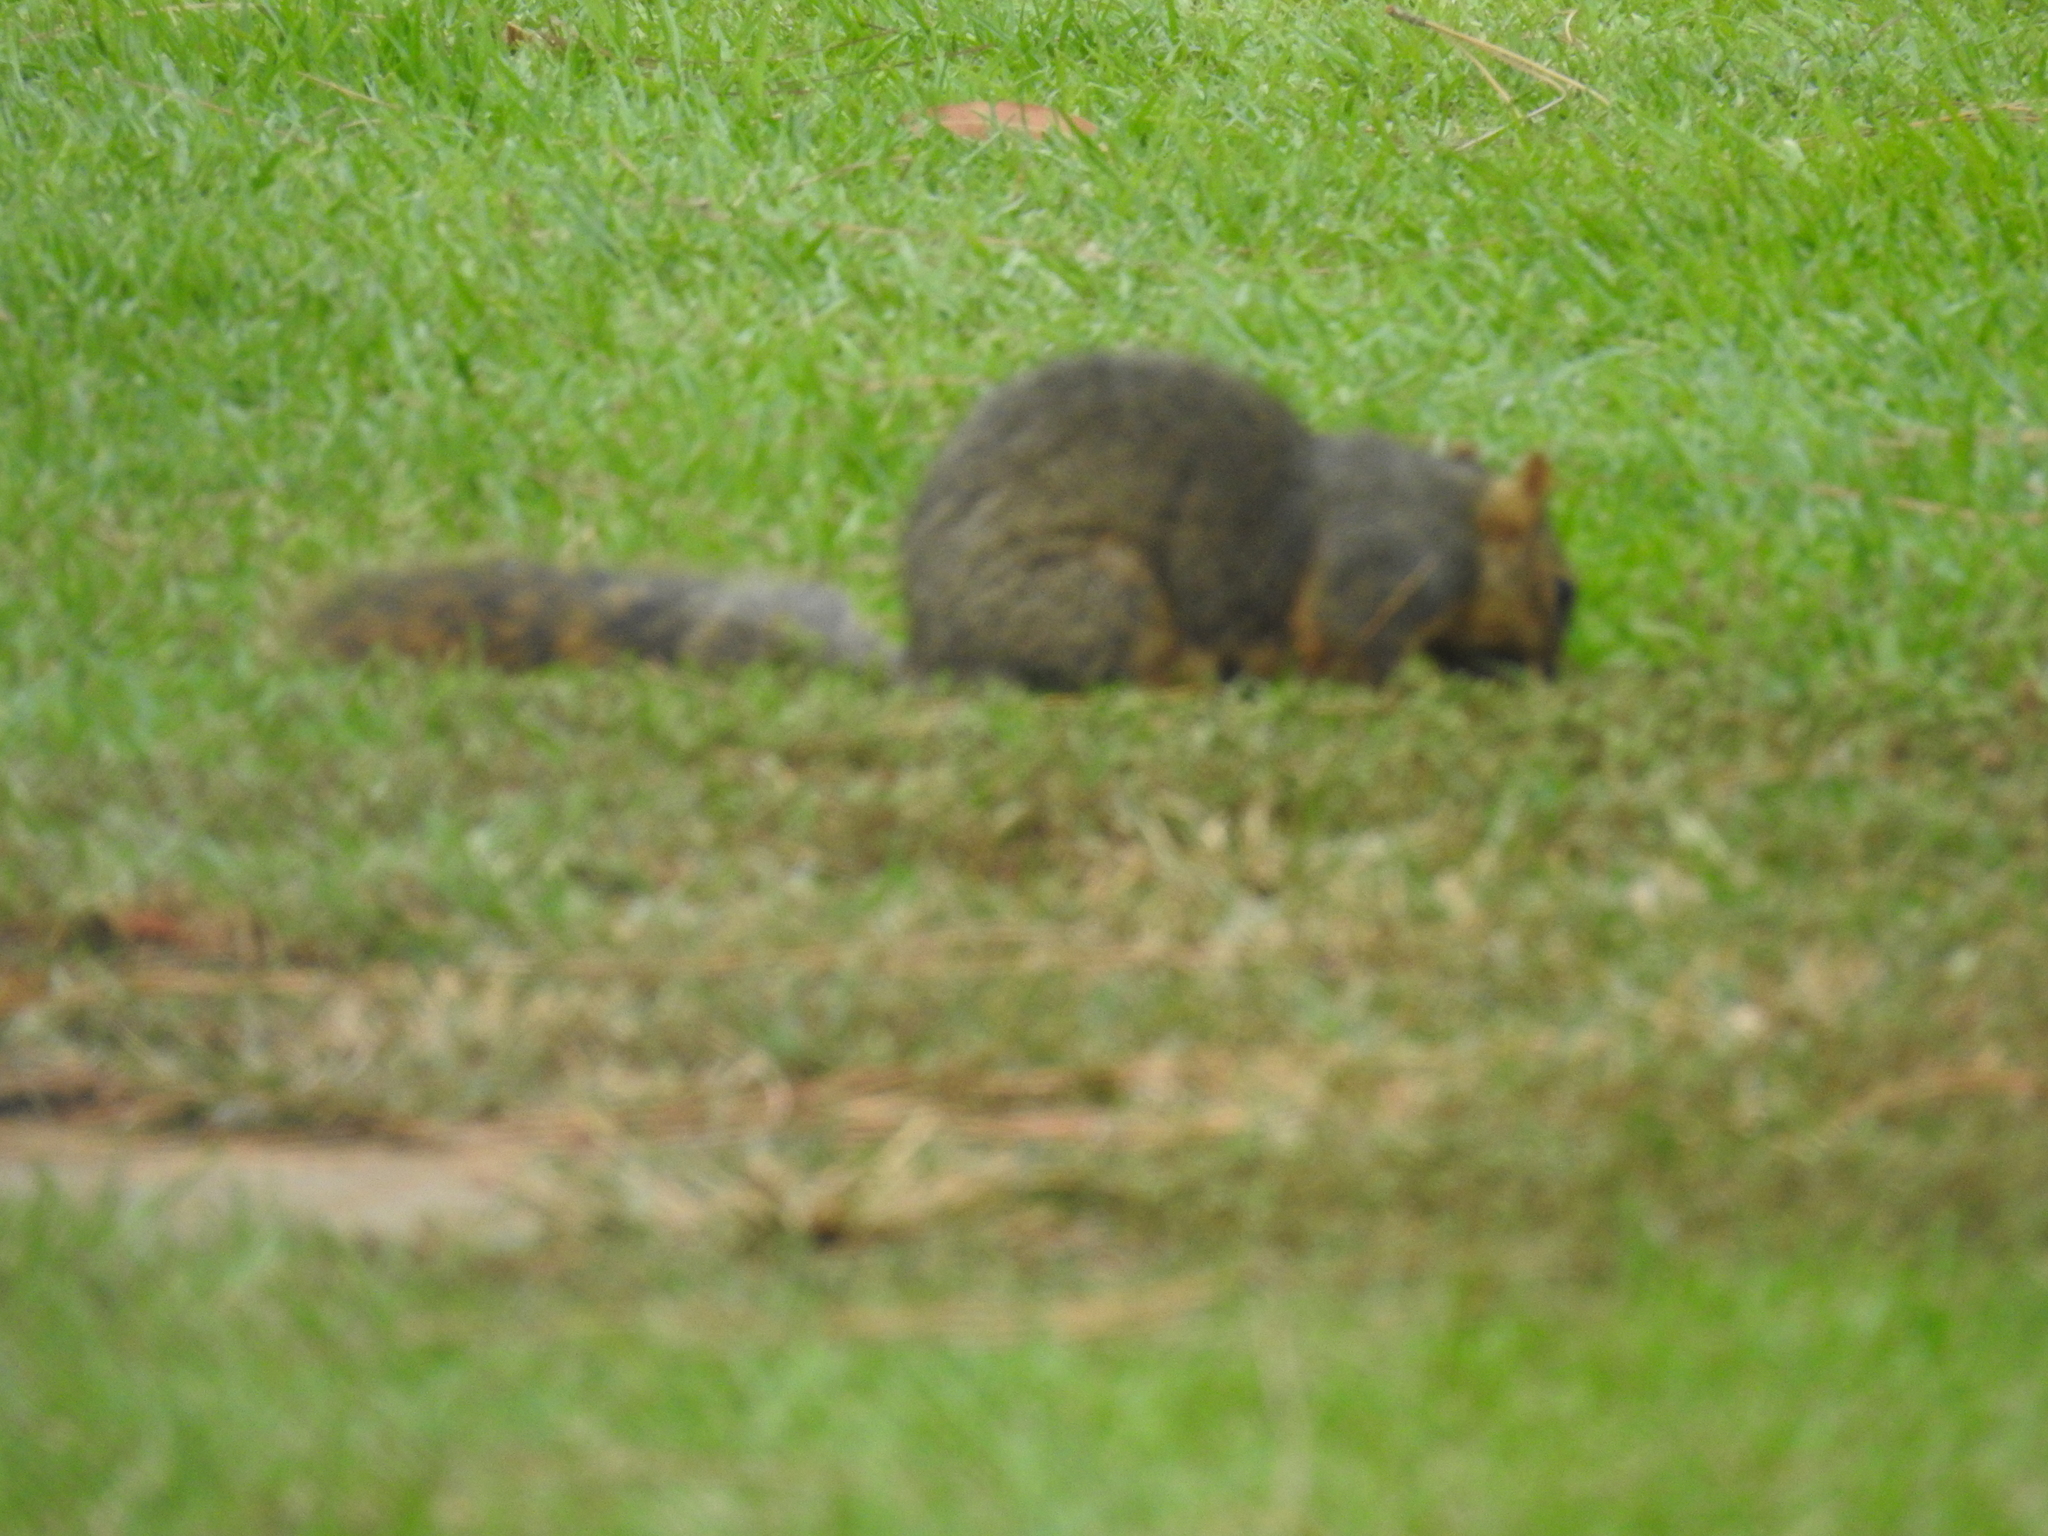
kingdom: Animalia
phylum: Chordata
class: Mammalia
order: Rodentia
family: Sciuridae
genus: Sciurus
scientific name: Sciurus niger
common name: Fox squirrel
